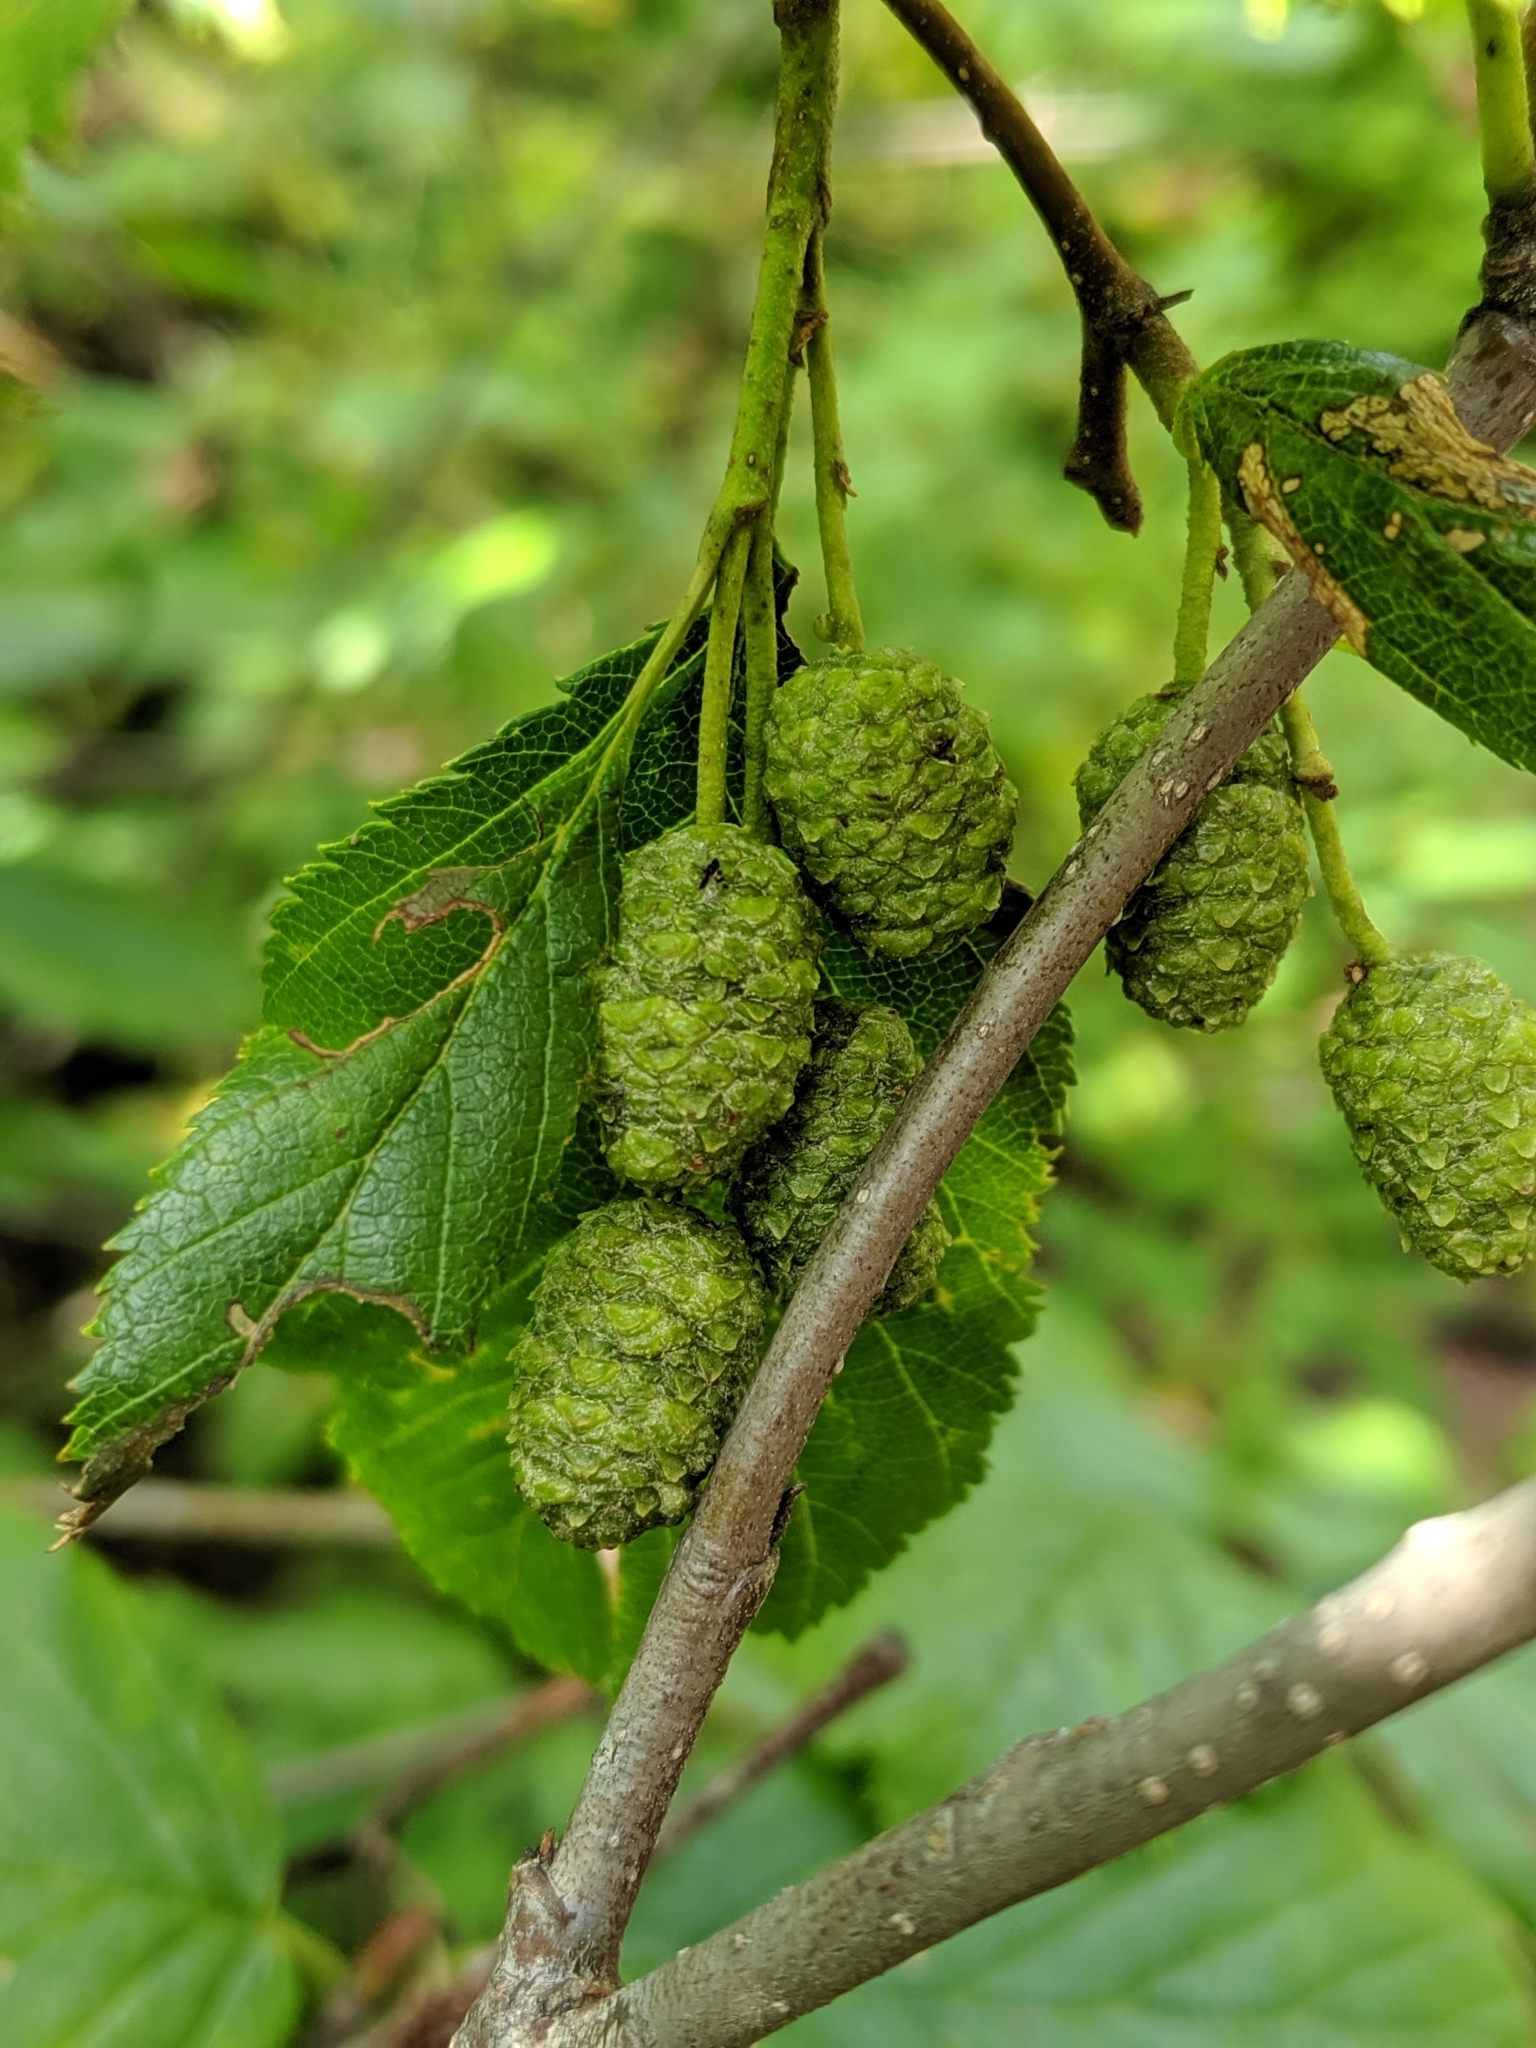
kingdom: Plantae
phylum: Tracheophyta
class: Magnoliopsida
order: Fagales
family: Betulaceae
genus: Alnus
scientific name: Alnus alnobetula
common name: Green alder
